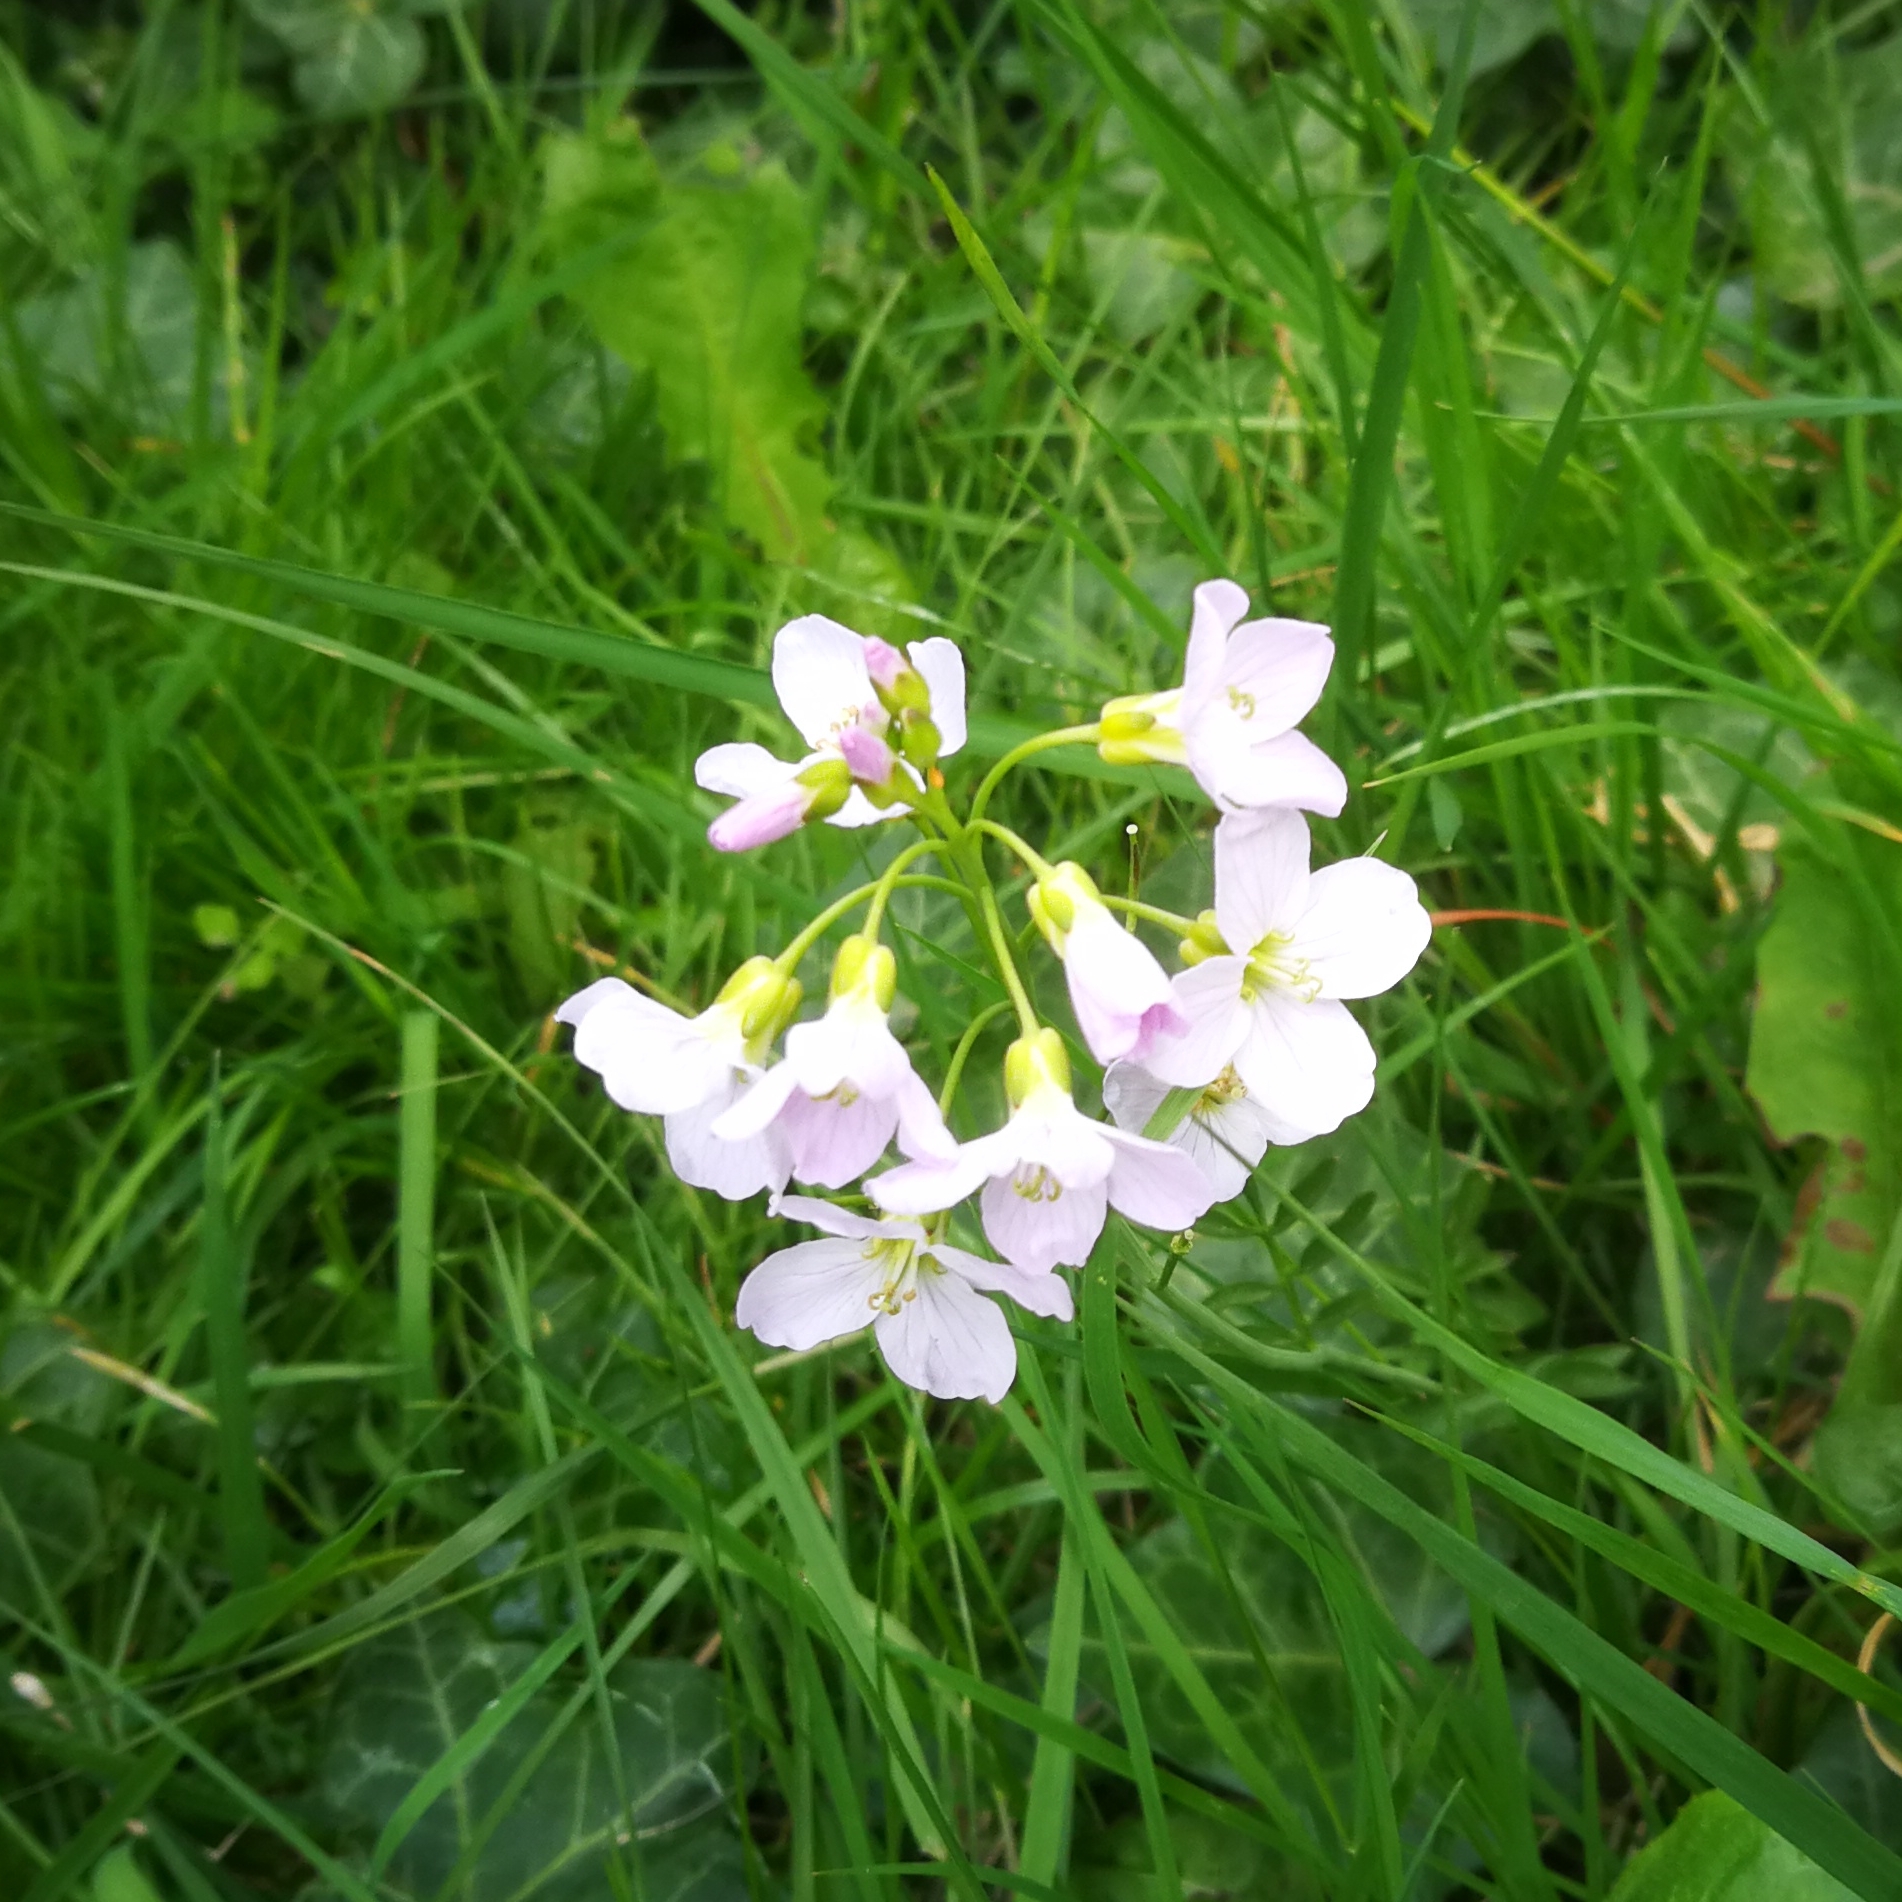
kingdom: Plantae
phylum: Tracheophyta
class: Magnoliopsida
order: Brassicales
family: Brassicaceae
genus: Cardamine
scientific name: Cardamine pratensis
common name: Cuckoo flower
